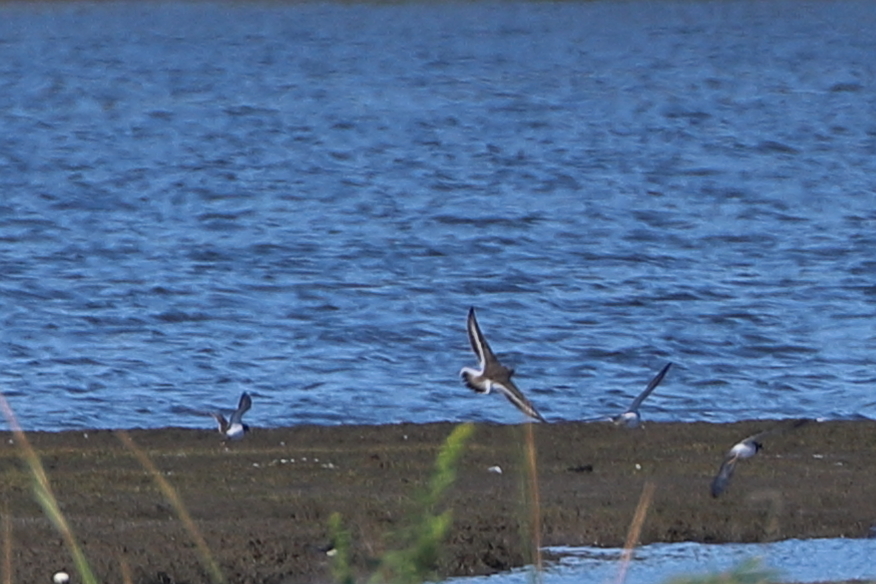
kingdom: Animalia
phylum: Chordata
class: Aves
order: Charadriiformes
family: Charadriidae
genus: Charadrius
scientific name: Charadrius semipalmatus
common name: Semipalmated plover
